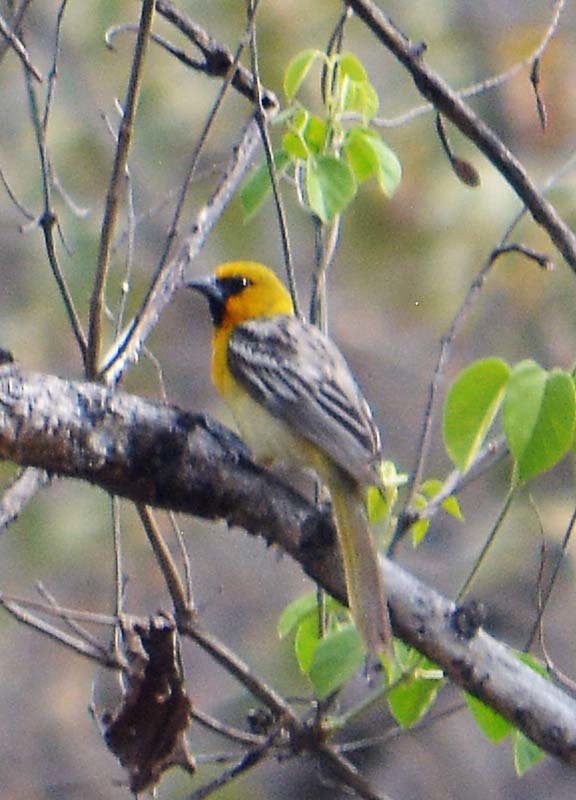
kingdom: Animalia
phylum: Chordata
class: Aves
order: Passeriformes
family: Icteridae
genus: Icterus
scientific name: Icterus pustulatus
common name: Streak-backed oriole
